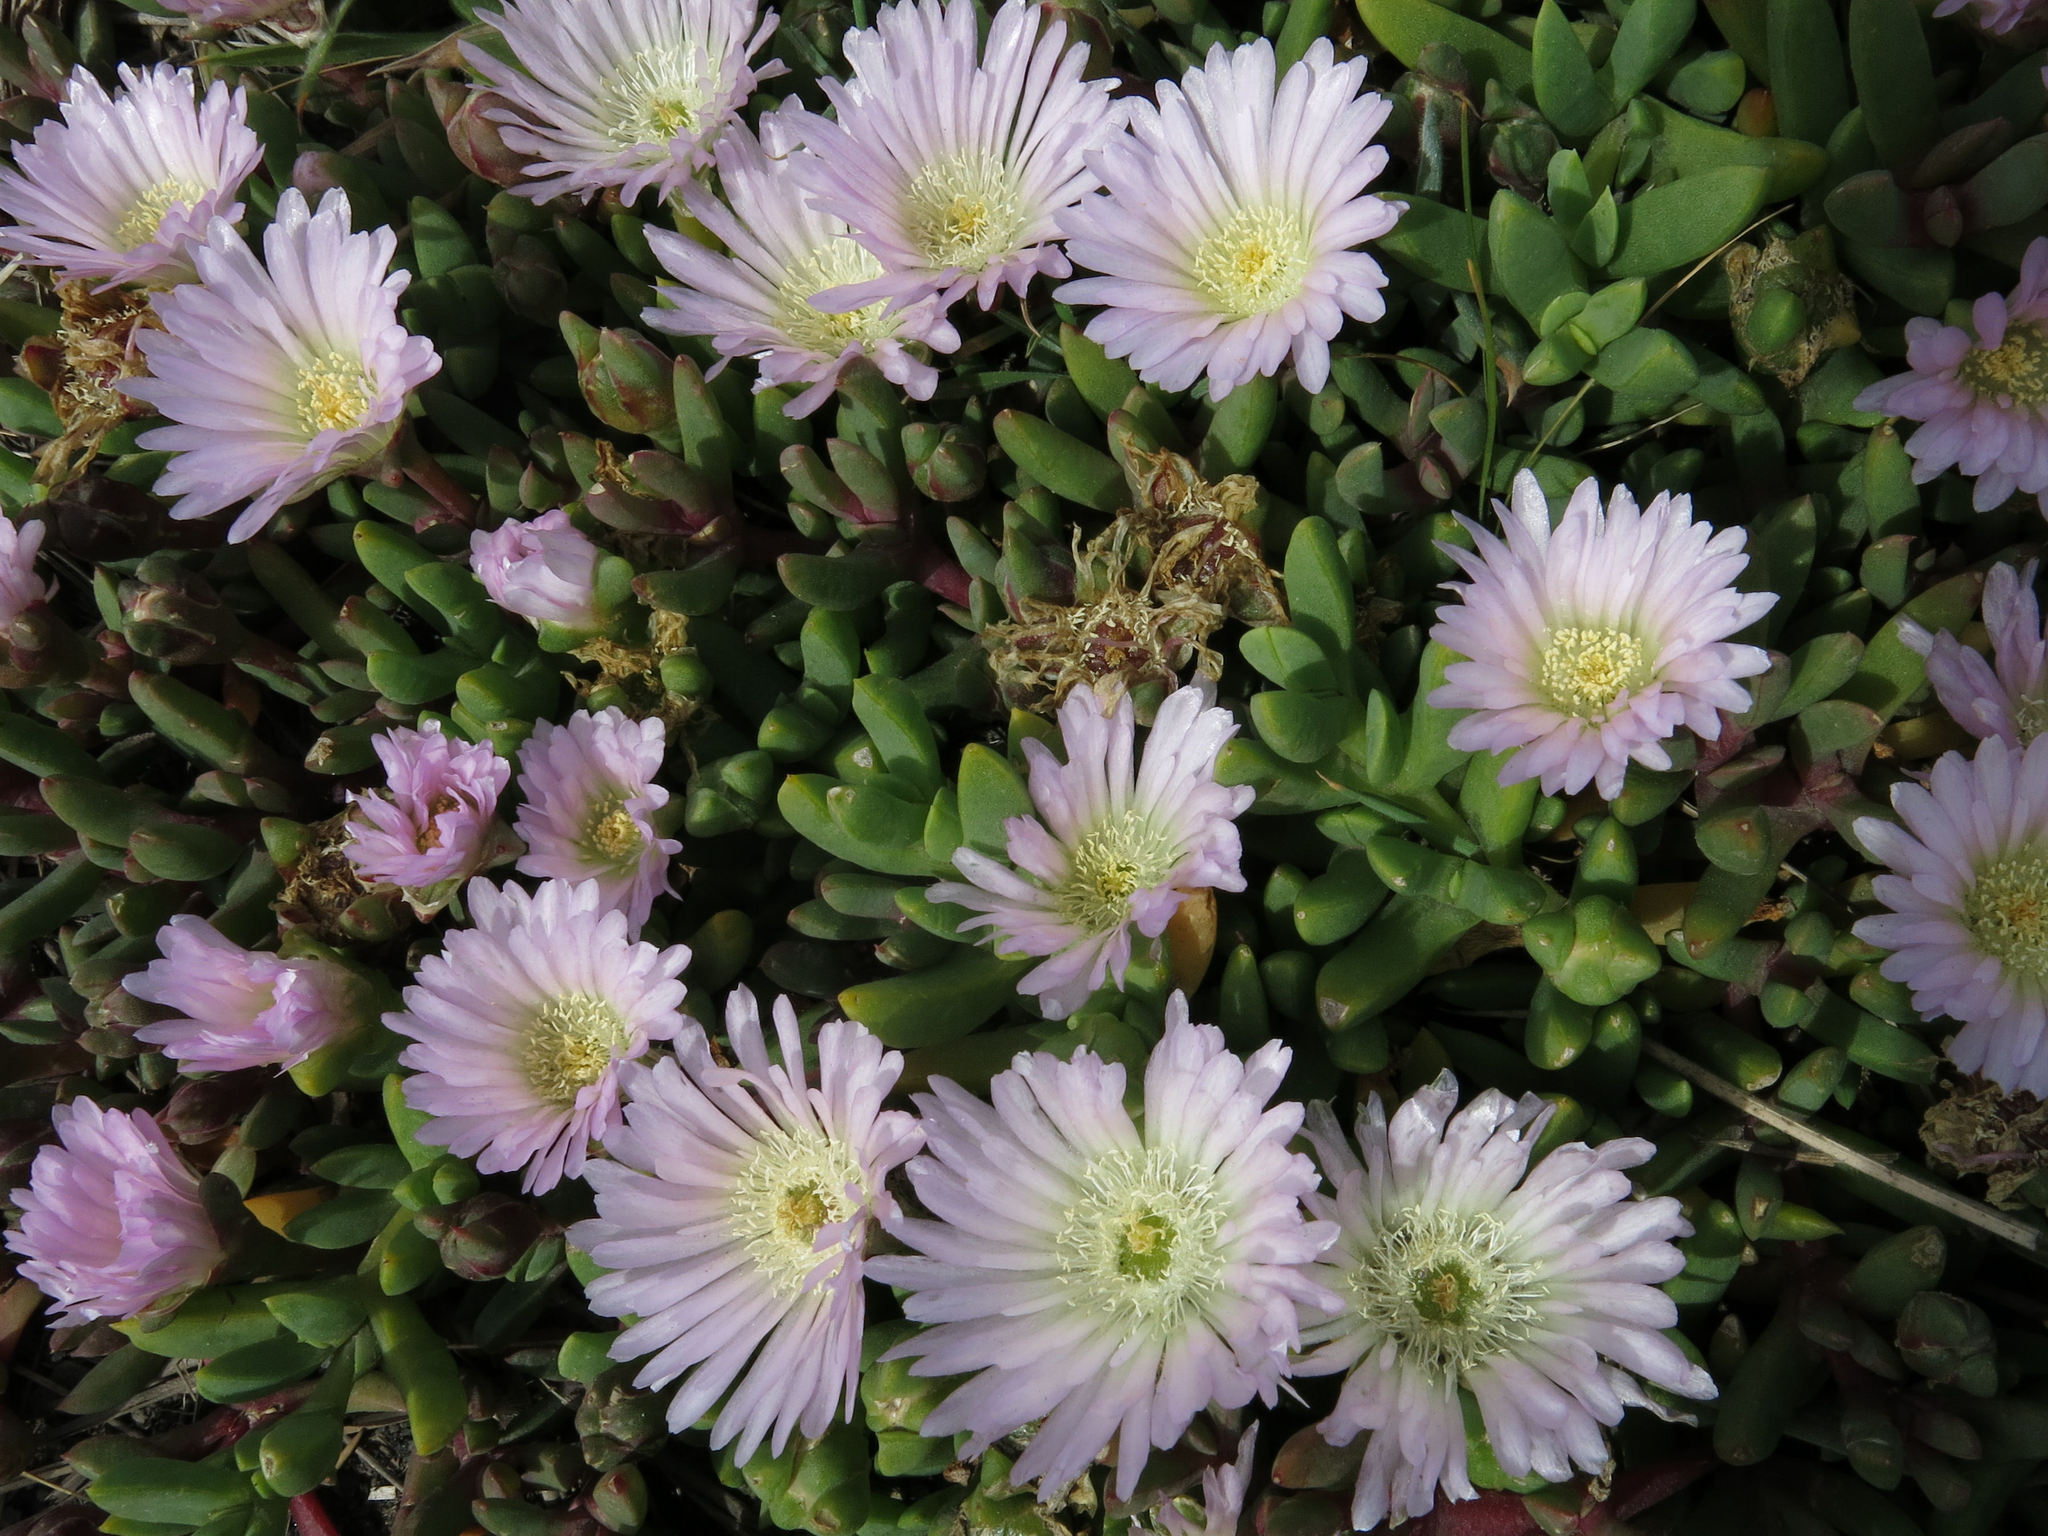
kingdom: Plantae
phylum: Tracheophyta
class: Magnoliopsida
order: Caryophyllales
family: Aizoaceae
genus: Disphyma
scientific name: Disphyma australe
